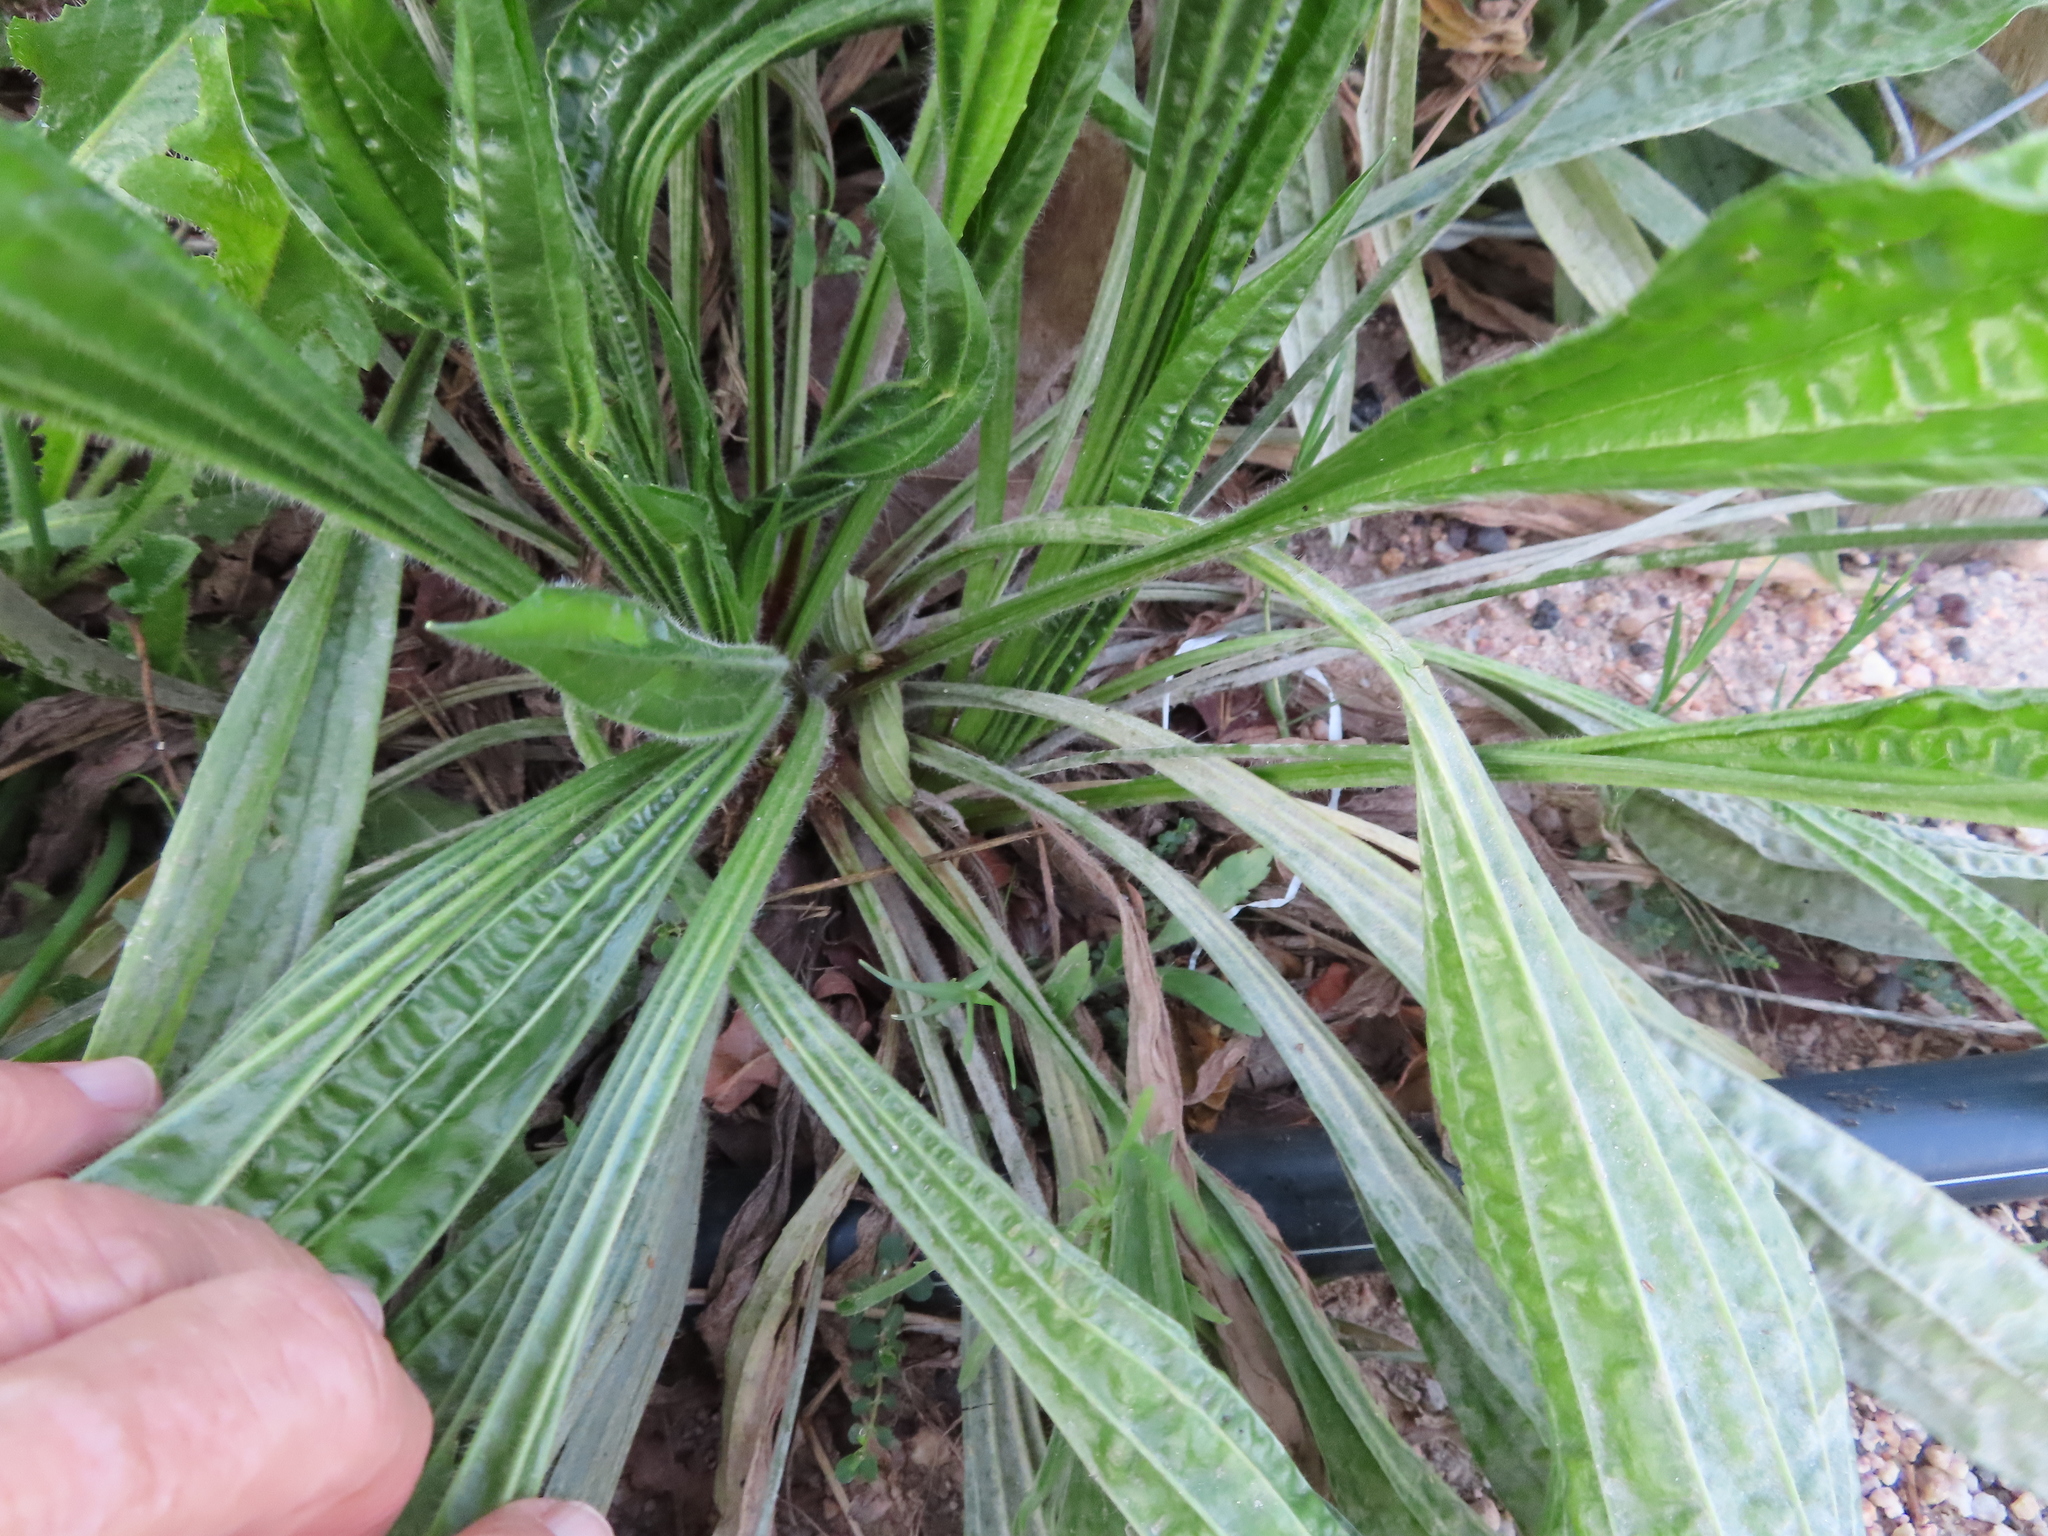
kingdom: Plantae
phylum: Tracheophyta
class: Magnoliopsida
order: Lamiales
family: Plantaginaceae
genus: Plantago
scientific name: Plantago lanceolata
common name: Ribwort plantain
